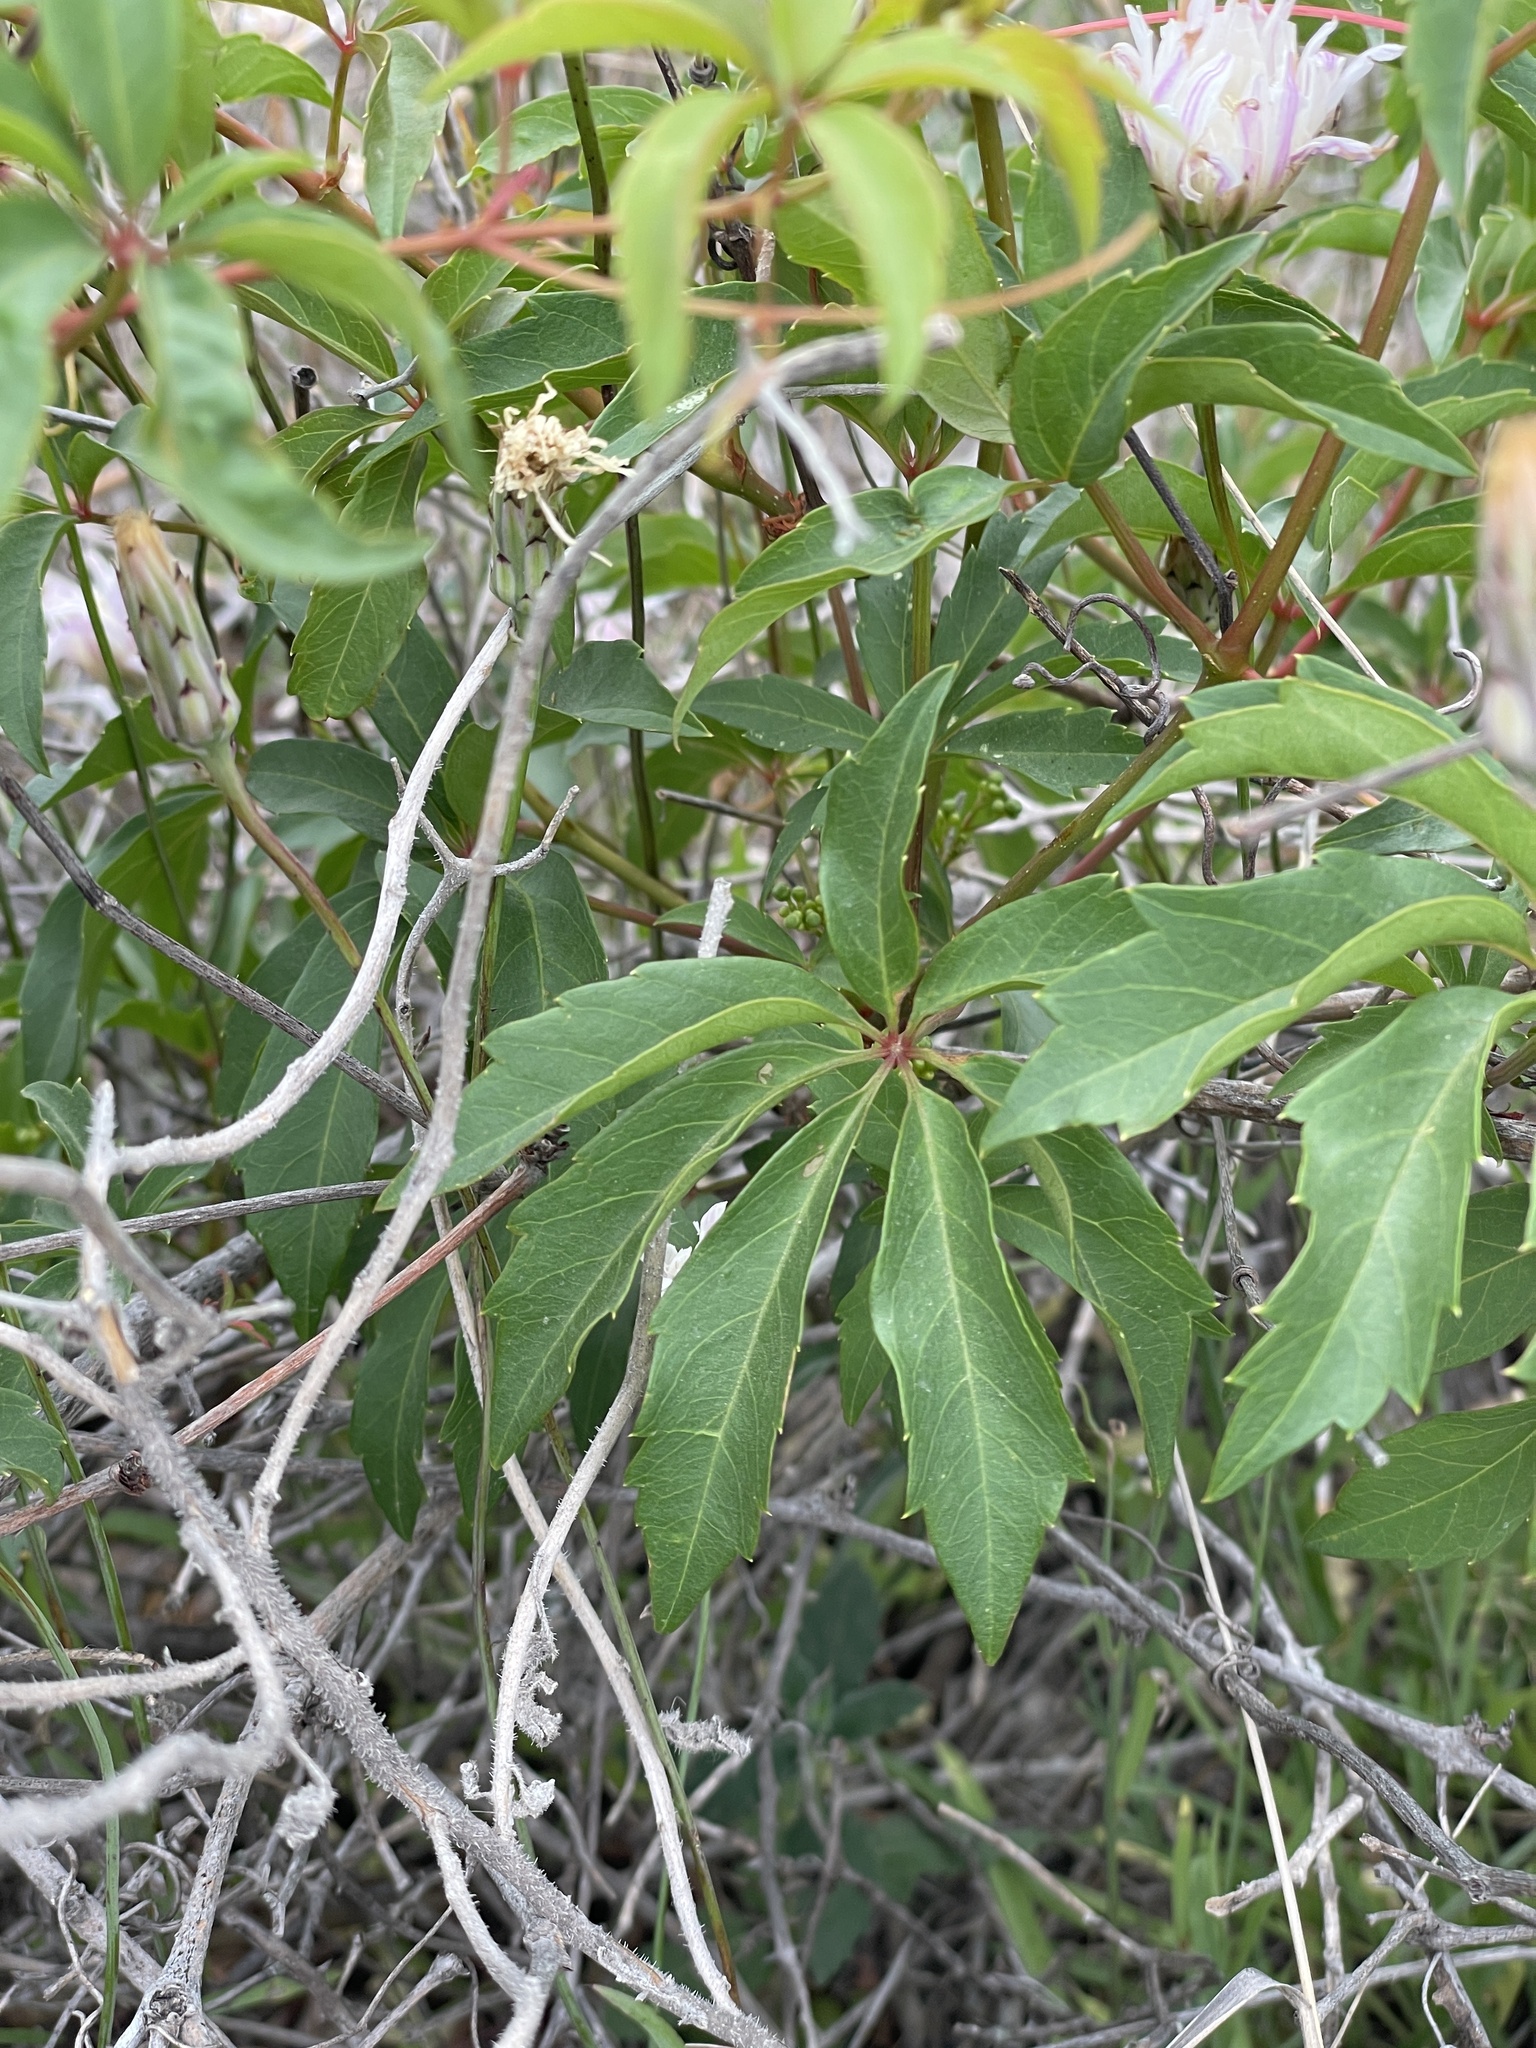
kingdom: Plantae
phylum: Tracheophyta
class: Magnoliopsida
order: Vitales
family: Vitaceae
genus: Parthenocissus
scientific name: Parthenocissus heptaphylla
